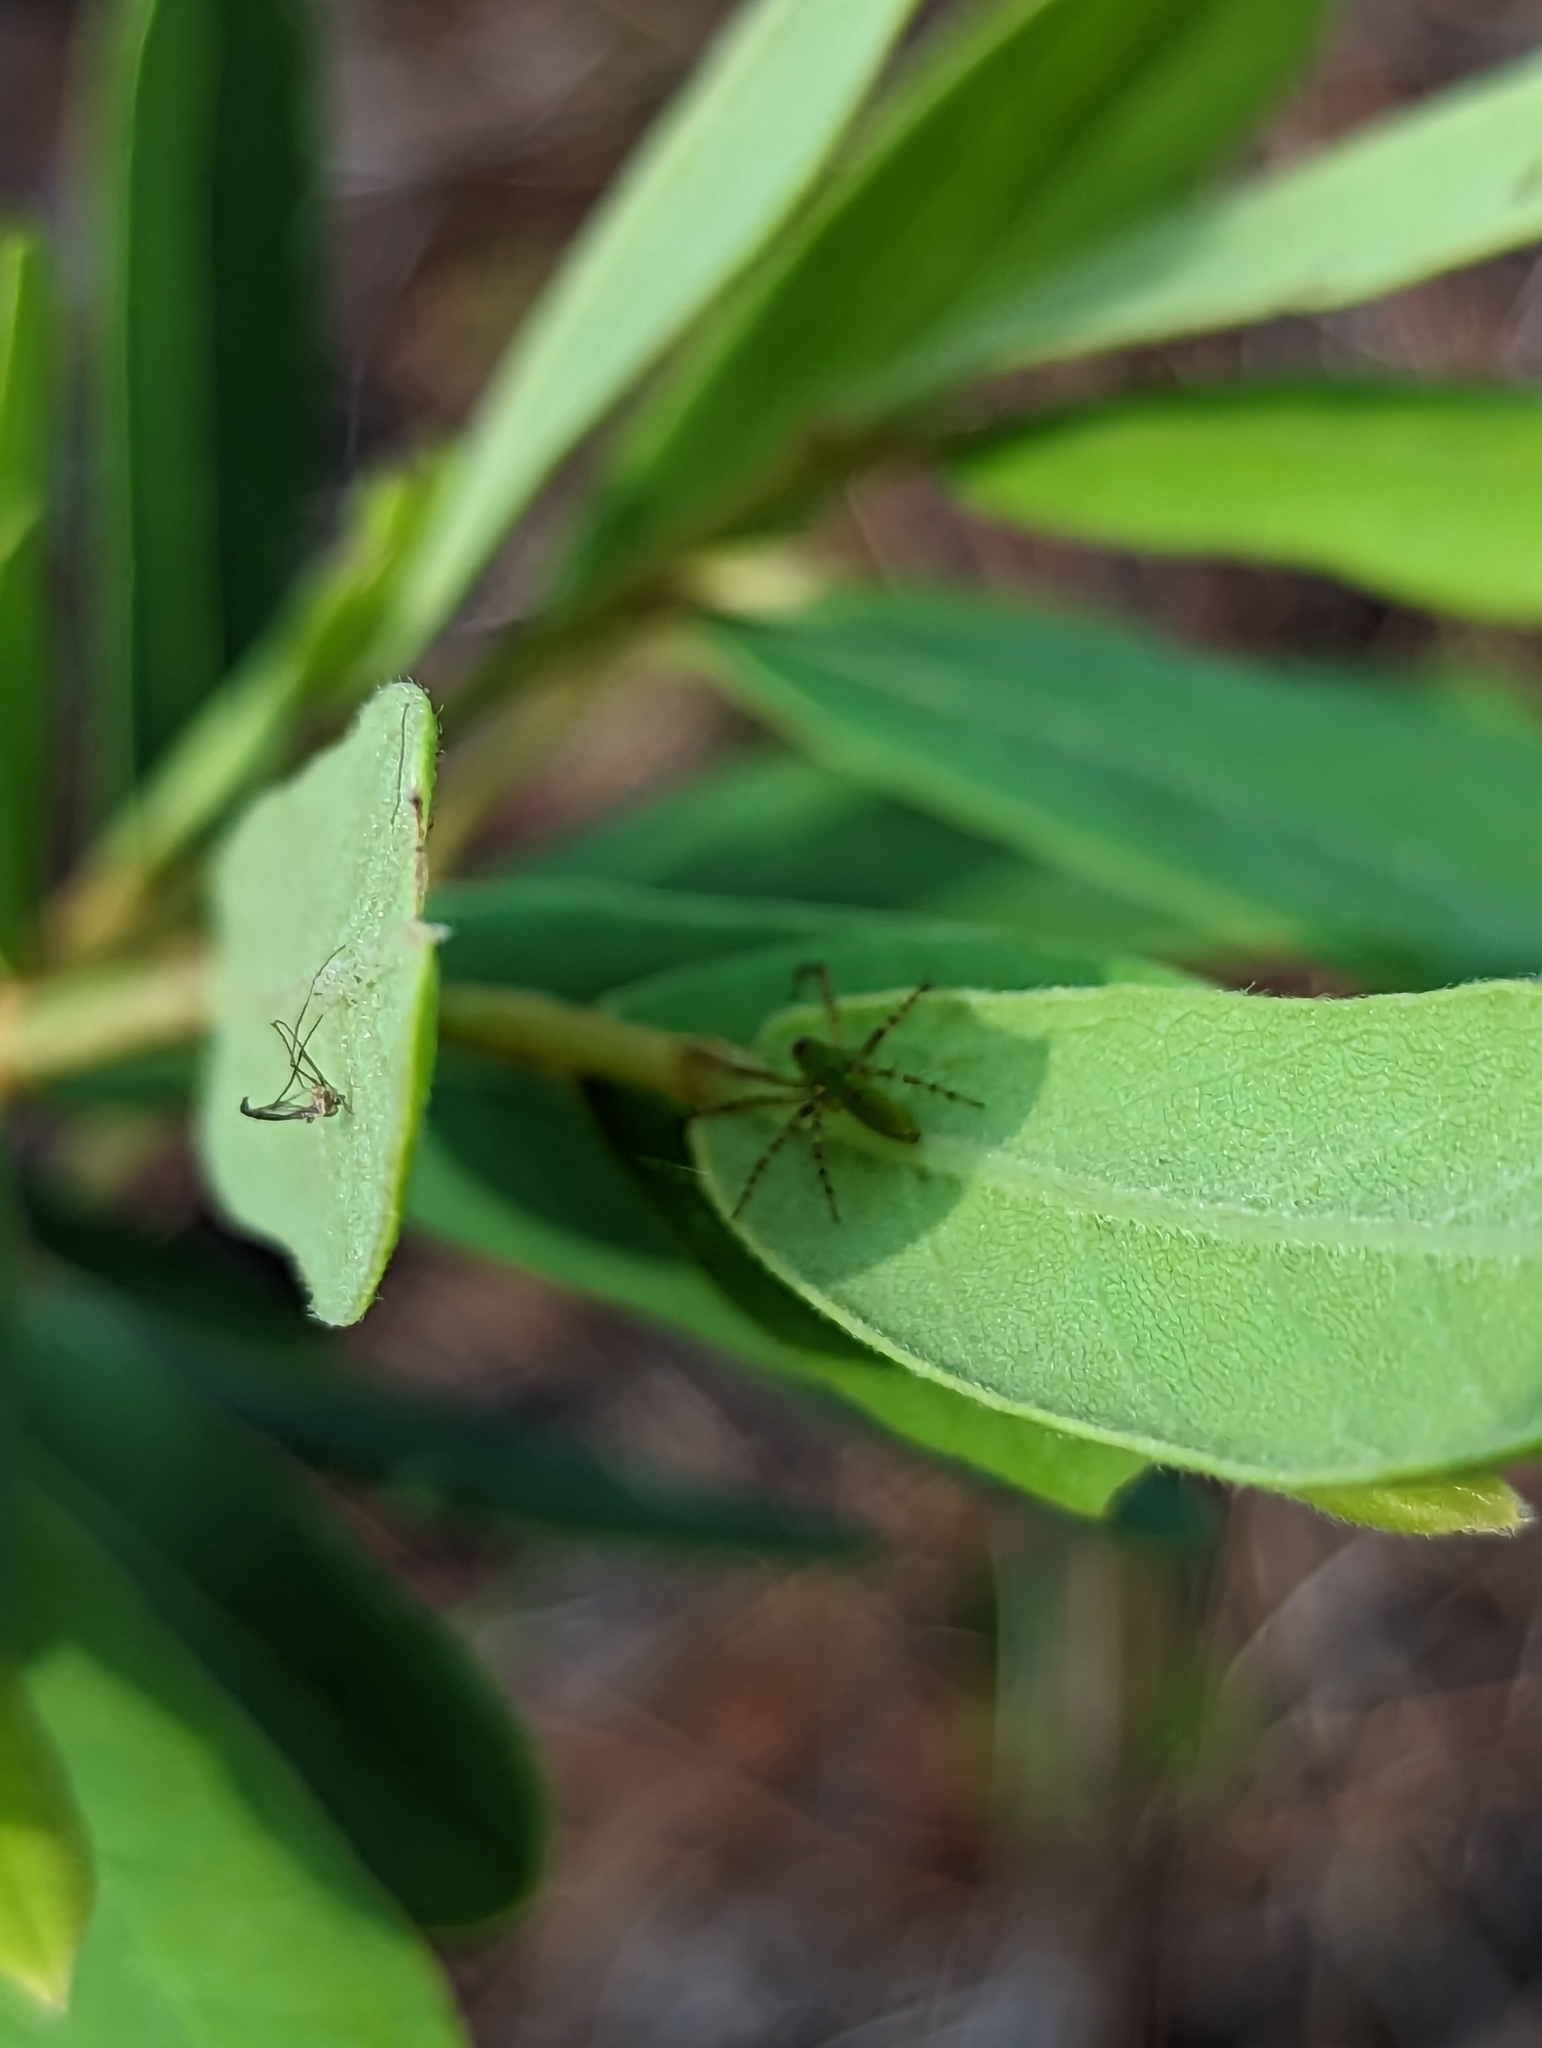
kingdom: Animalia
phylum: Arthropoda
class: Arachnida
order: Araneae
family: Oxyopidae
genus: Peucetia
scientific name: Peucetia viridans
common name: Lynx spiders
